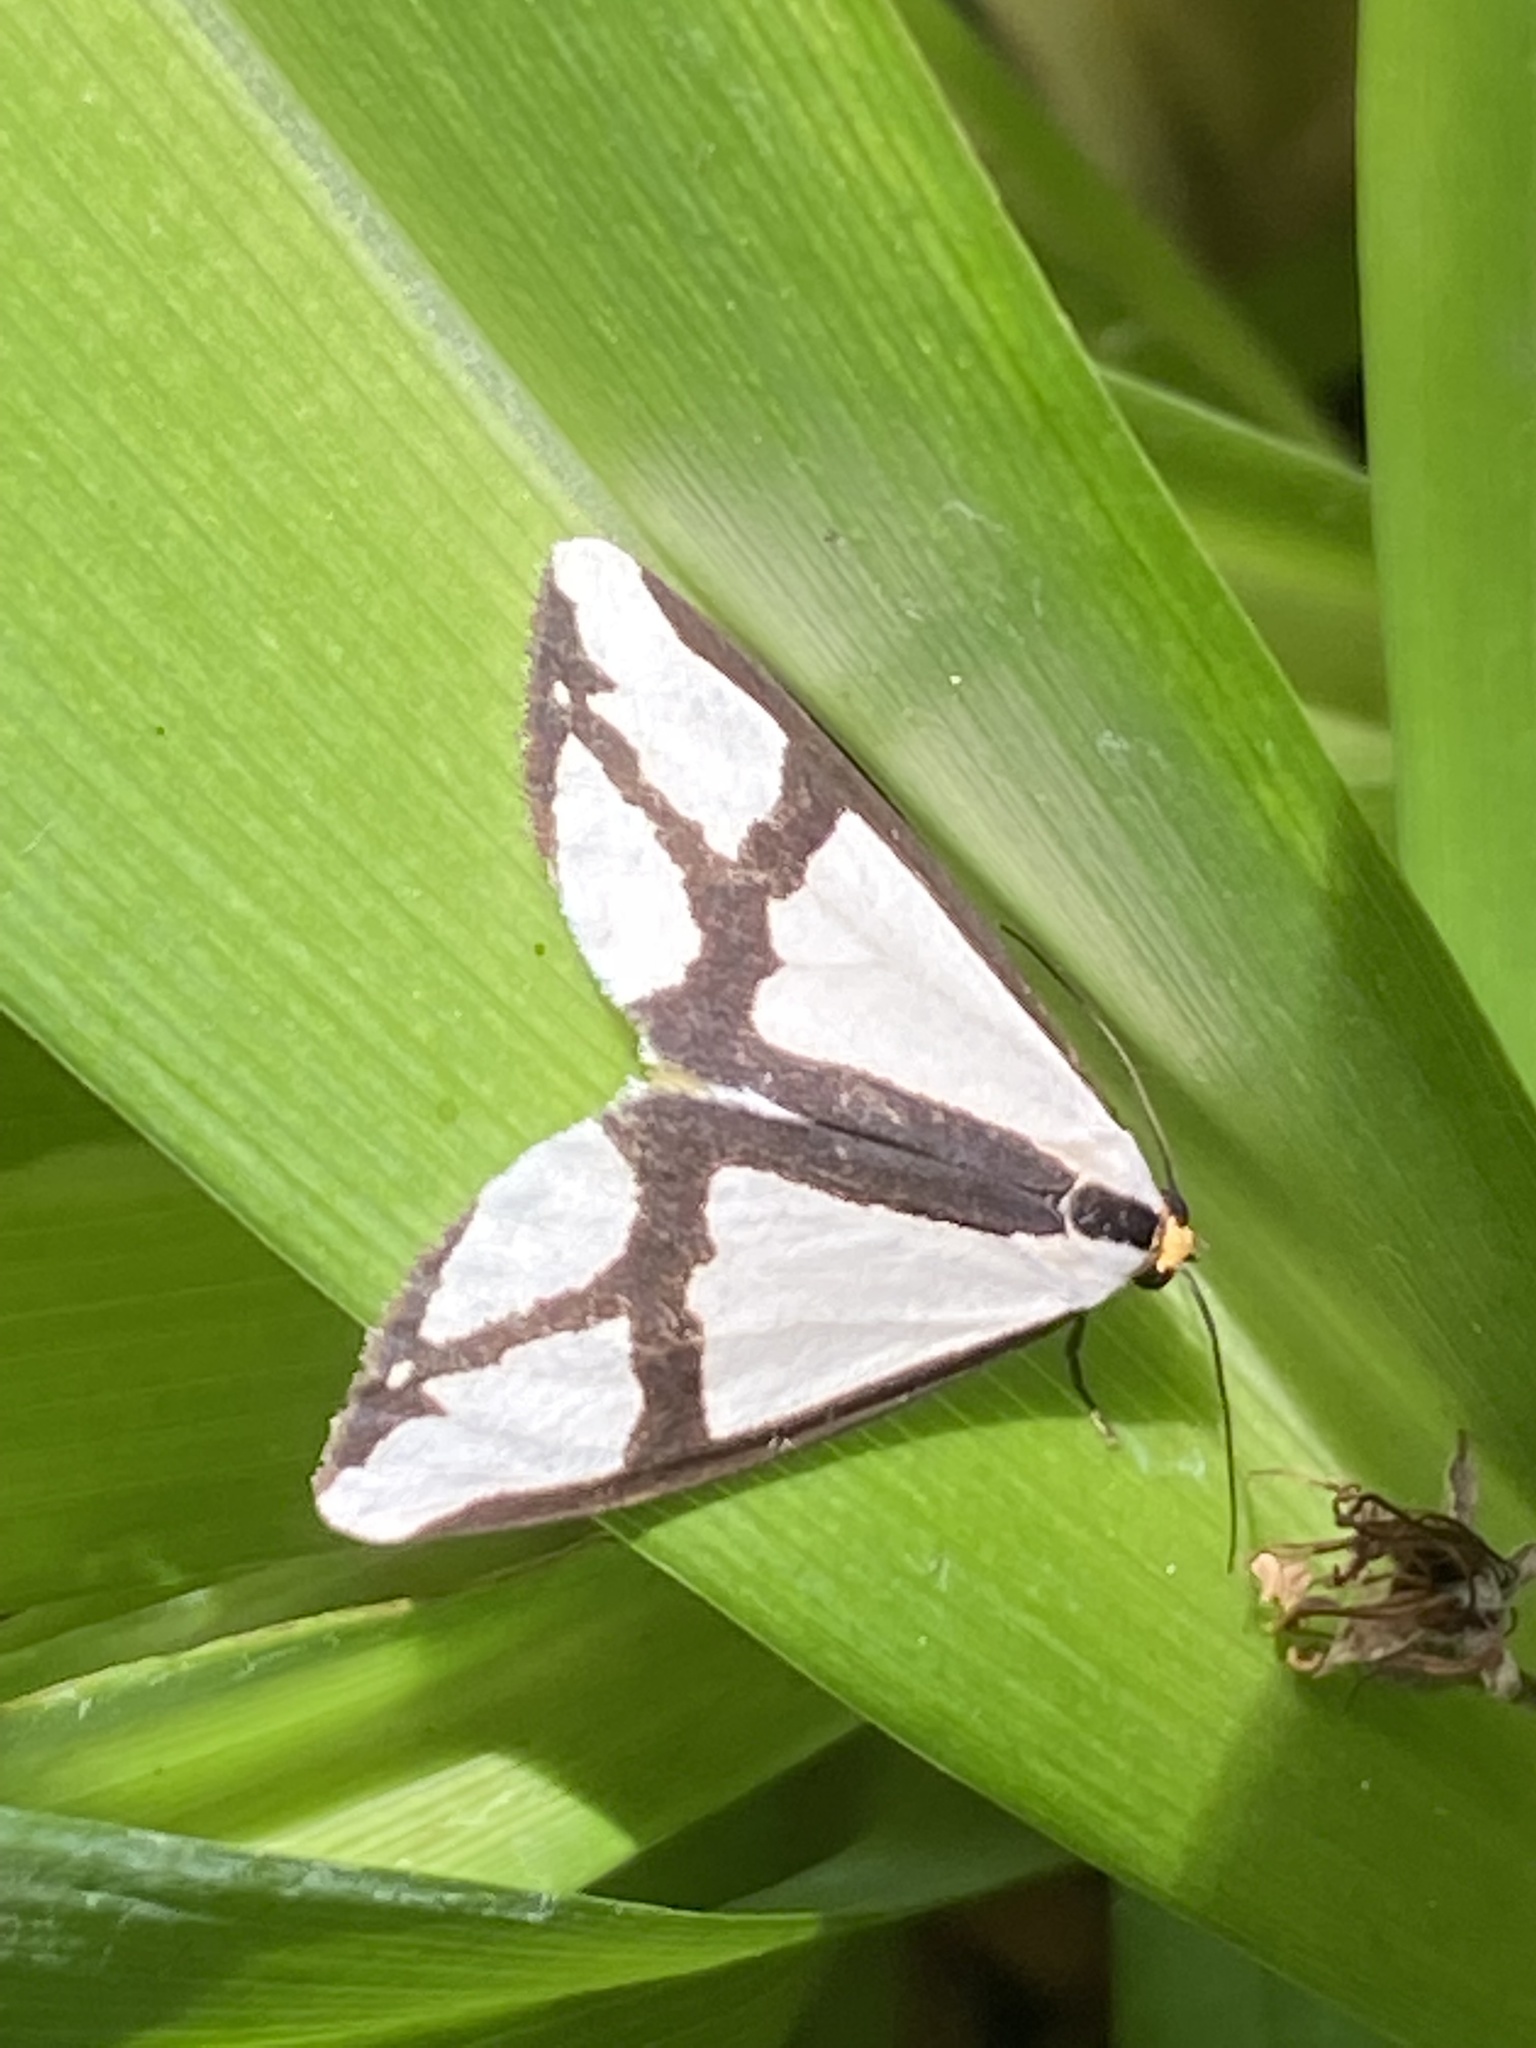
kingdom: Animalia
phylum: Arthropoda
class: Insecta
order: Lepidoptera
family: Erebidae
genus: Haploa
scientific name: Haploa contigua
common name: Neighbor moth
